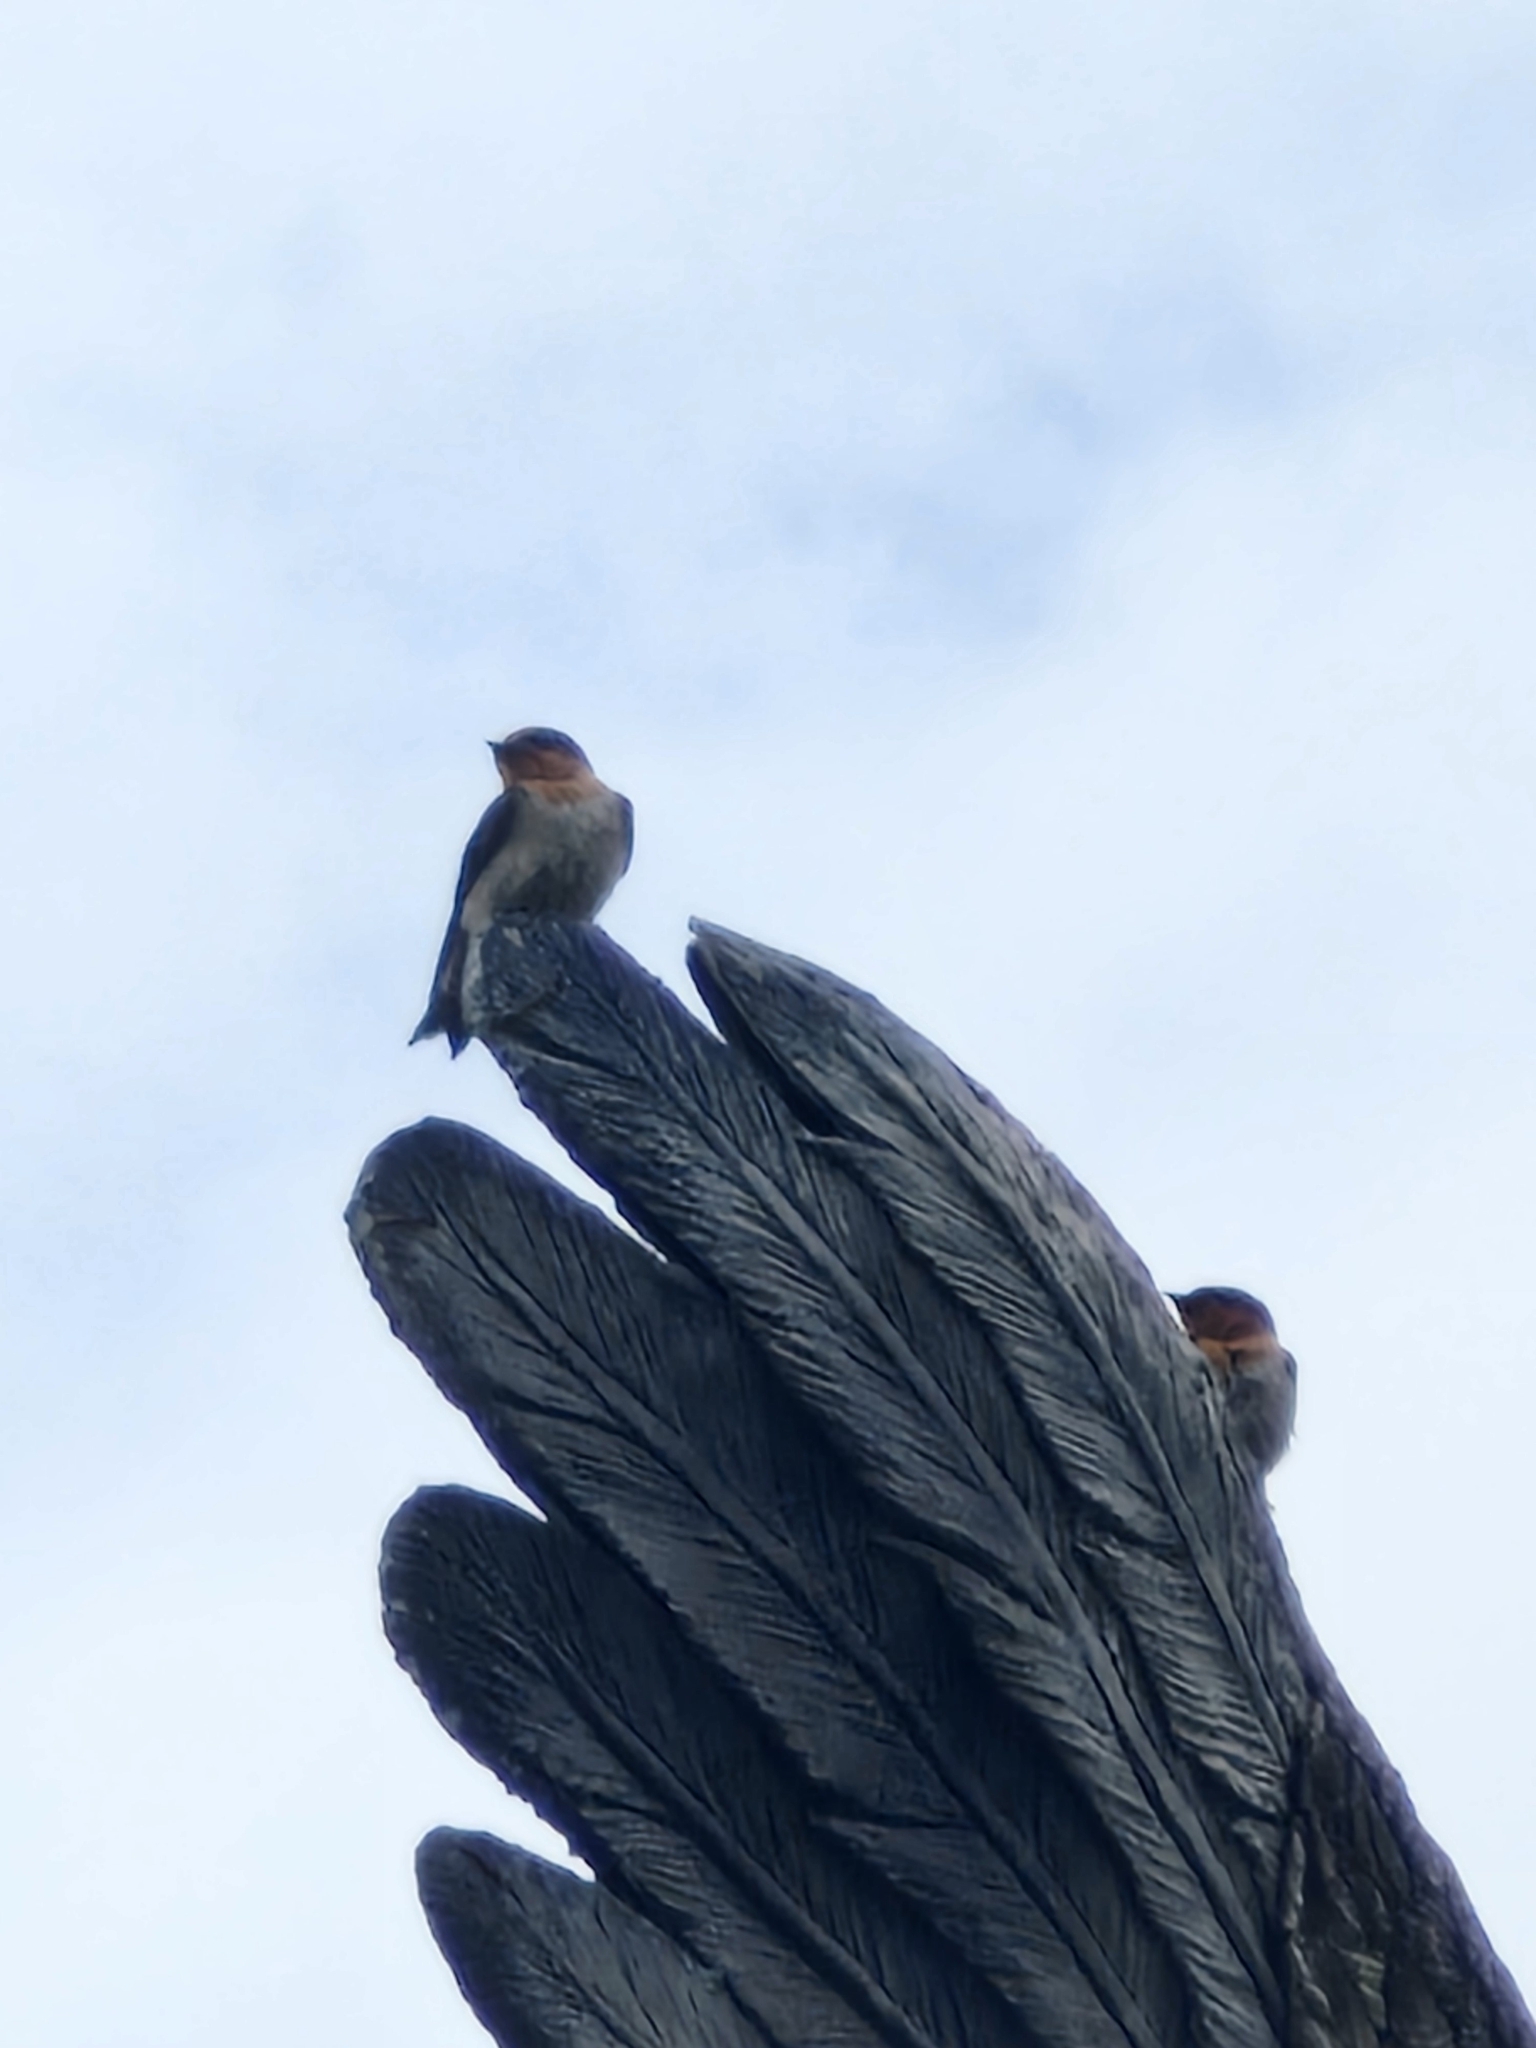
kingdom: Animalia
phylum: Chordata
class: Aves
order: Passeriformes
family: Hirundinidae
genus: Hirundo
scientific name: Hirundo tahitica
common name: Pacific swallow
